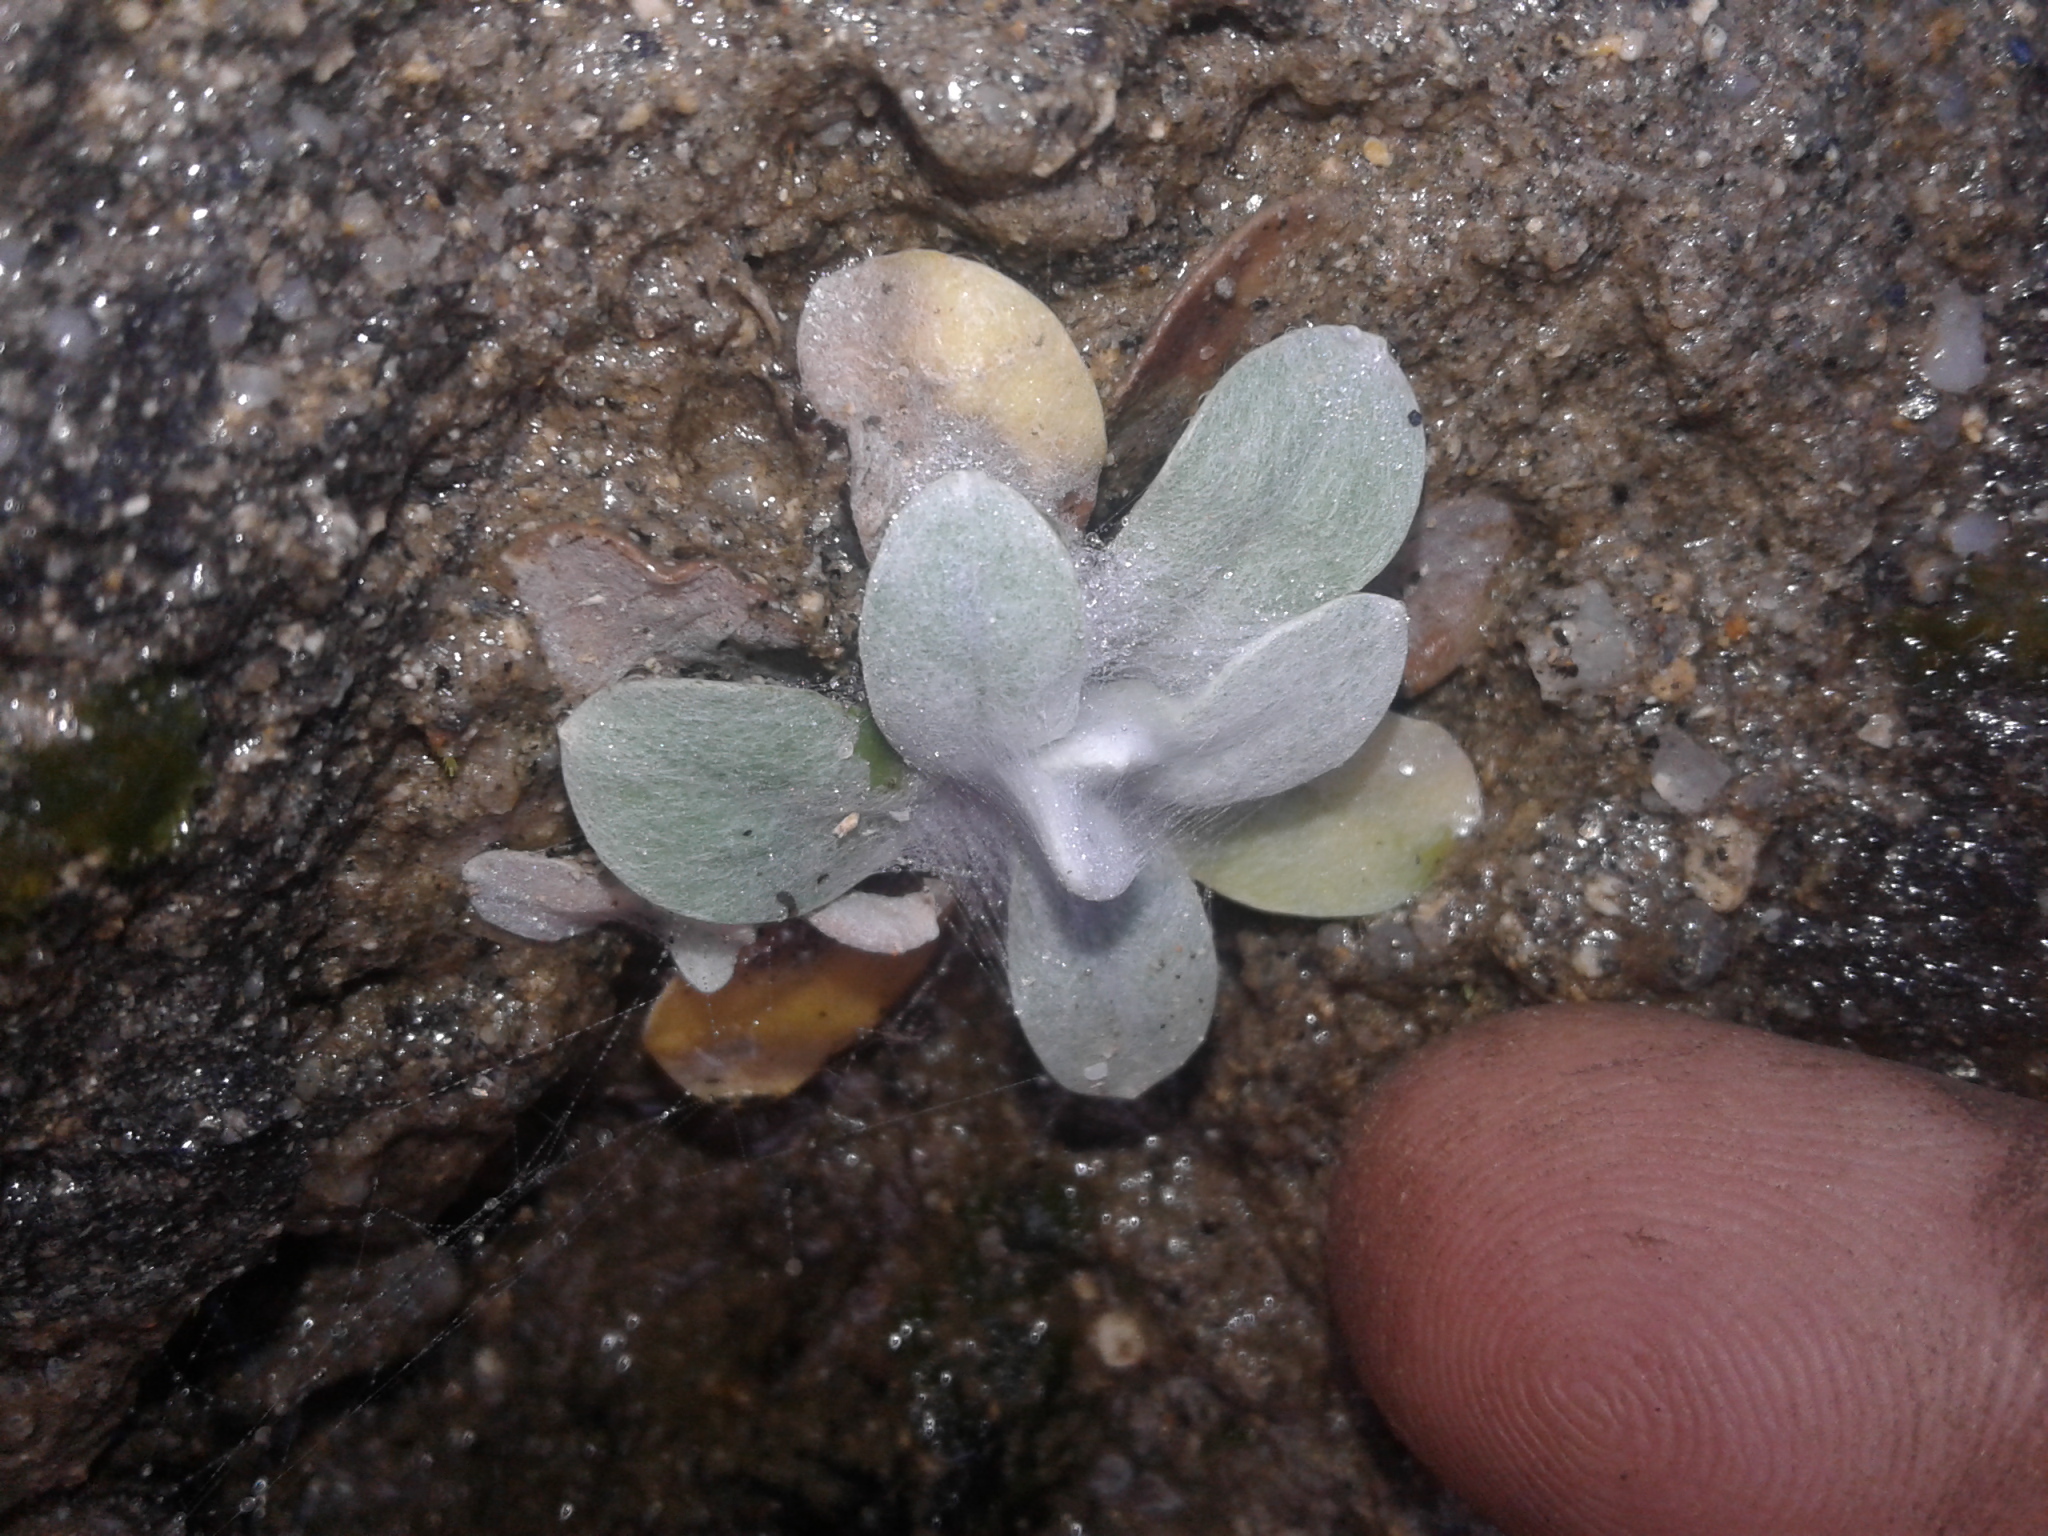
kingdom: Plantae
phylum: Tracheophyta
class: Magnoliopsida
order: Asterales
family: Asteraceae
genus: Helichrysum
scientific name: Helichrysum luteoalbum
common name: Daisy
